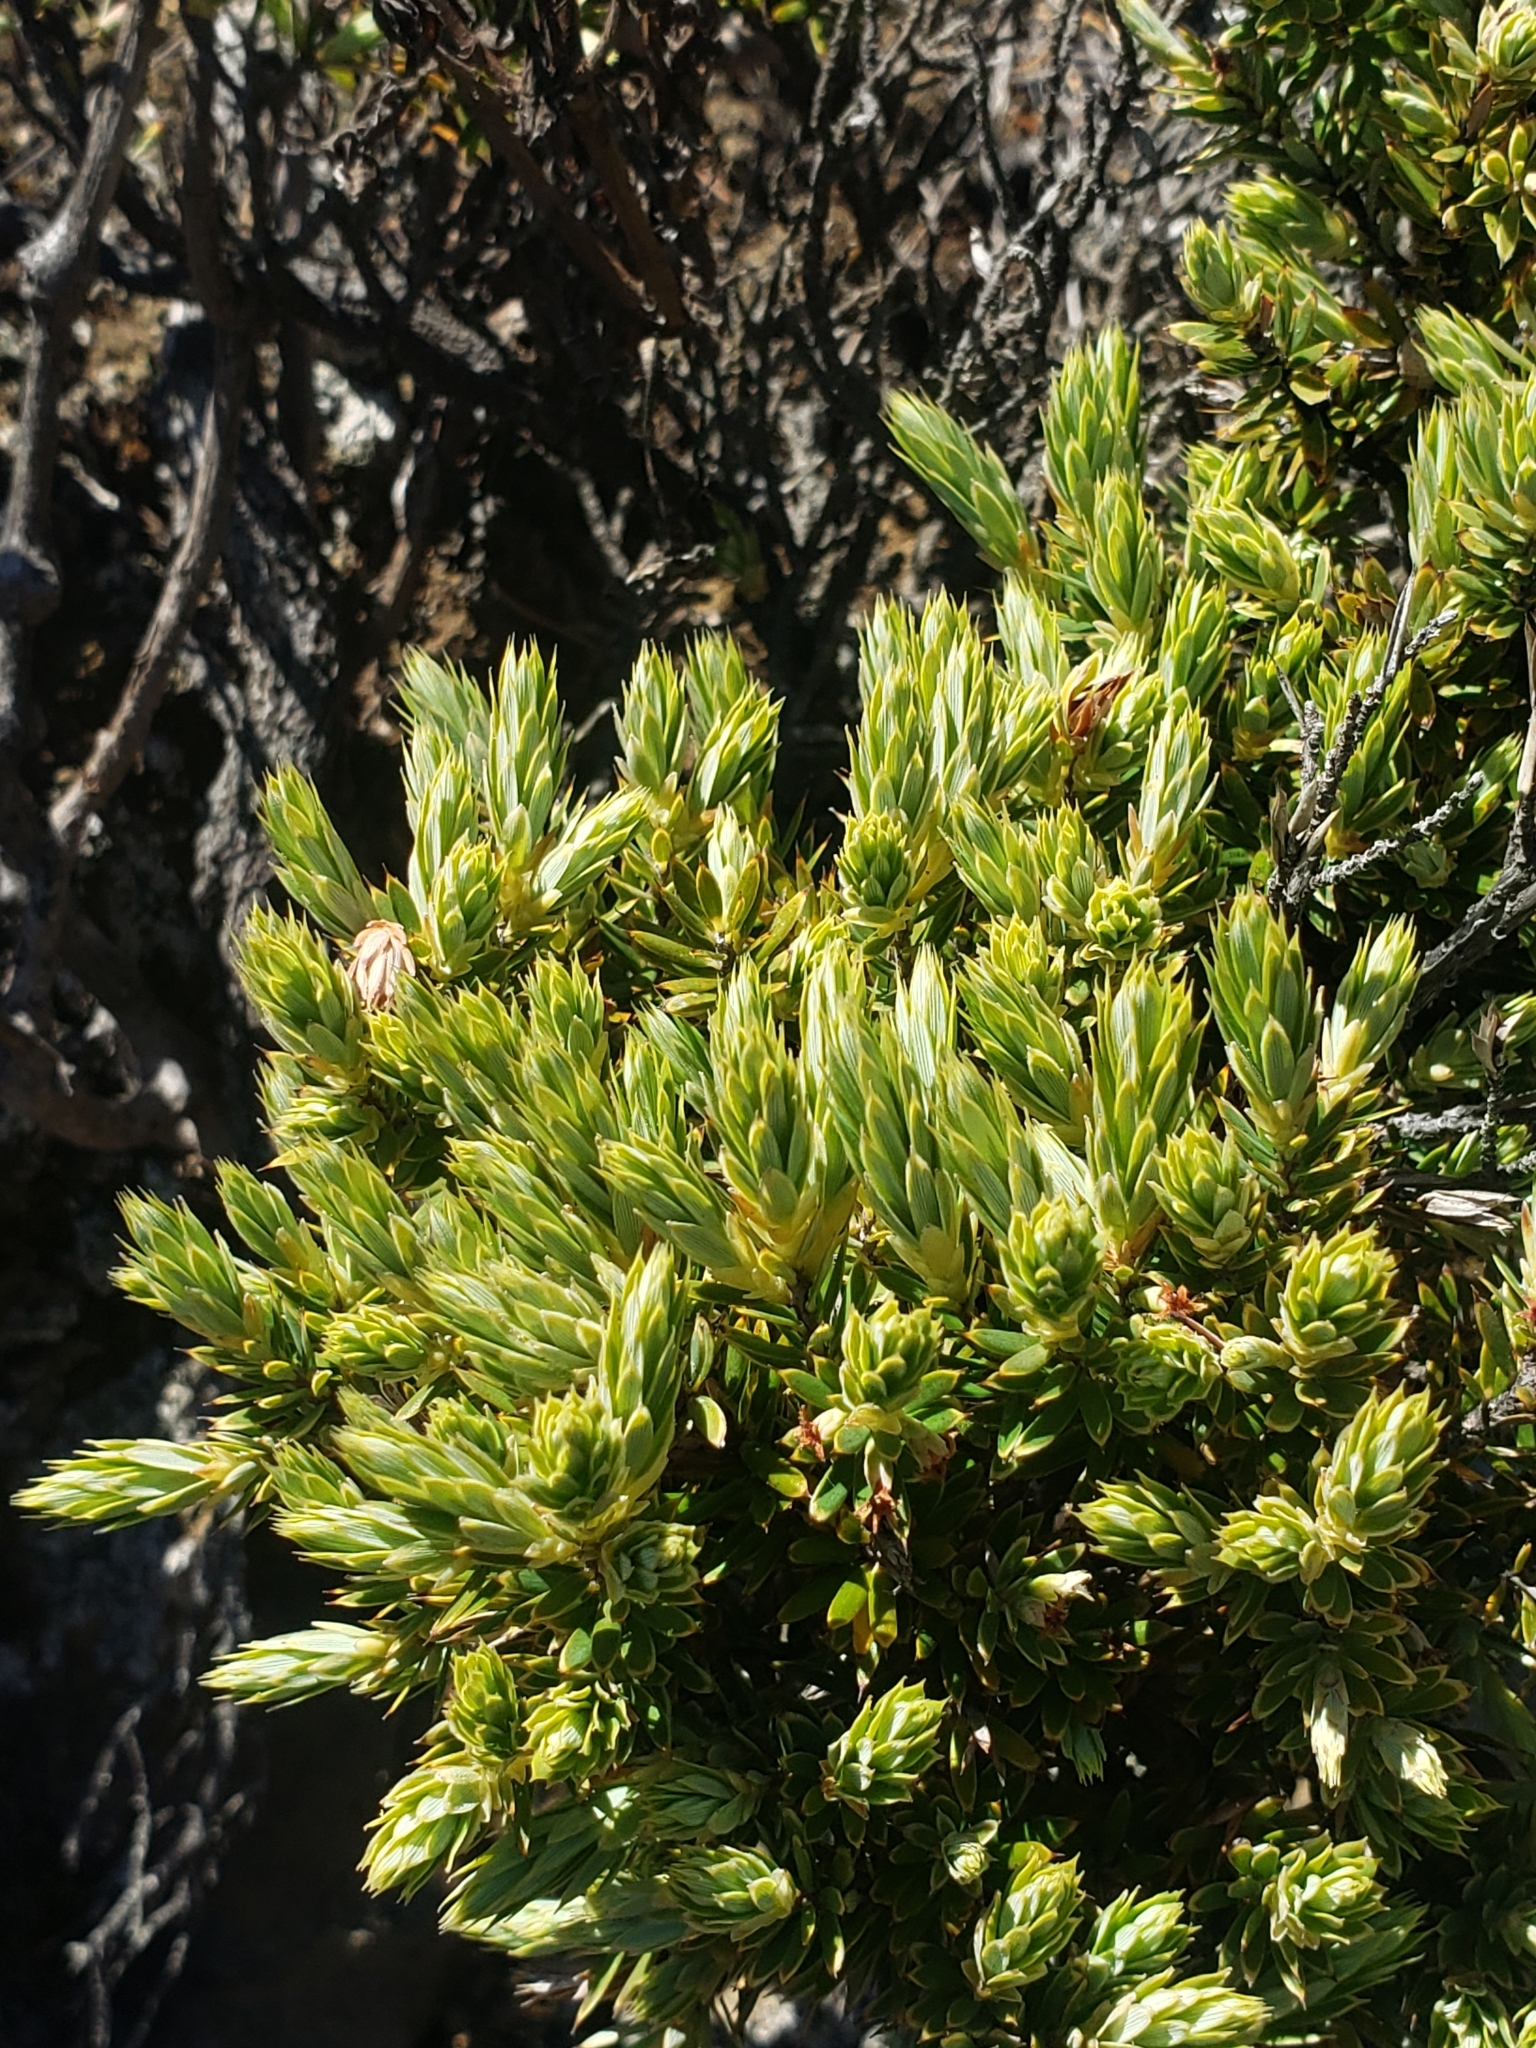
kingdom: Plantae
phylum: Tracheophyta
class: Magnoliopsida
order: Ericales
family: Ericaceae
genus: Leptecophylla
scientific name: Leptecophylla tameiameiae
